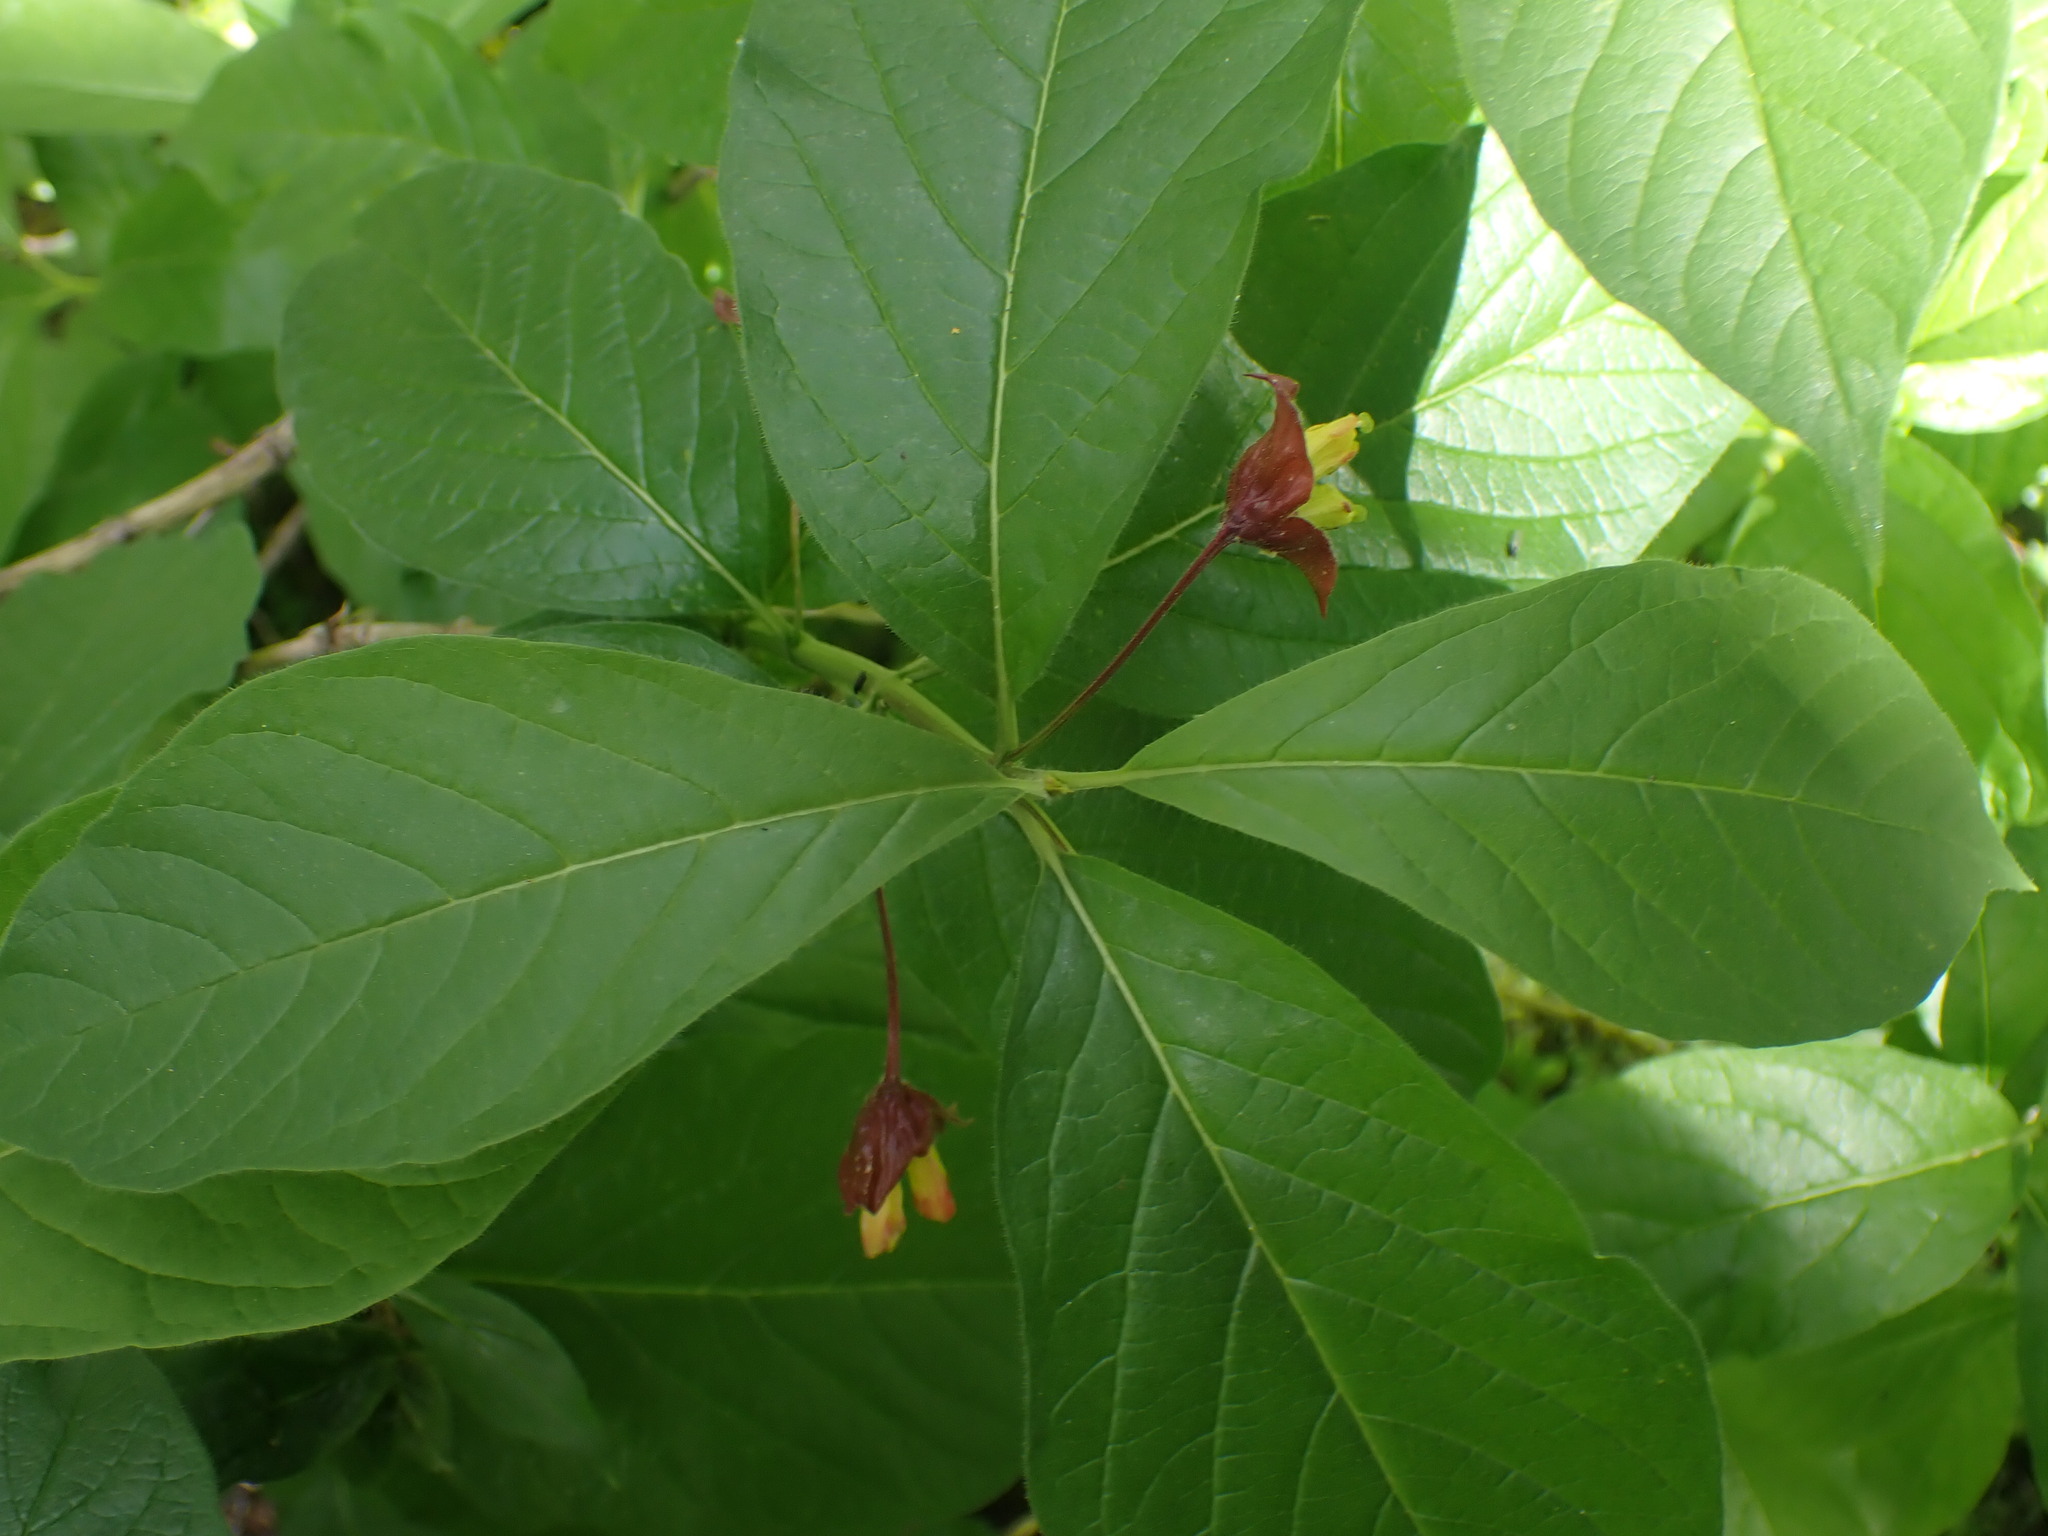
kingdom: Plantae
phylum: Tracheophyta
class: Magnoliopsida
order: Dipsacales
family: Caprifoliaceae
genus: Lonicera
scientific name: Lonicera involucrata
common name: Californian honeysuckle
